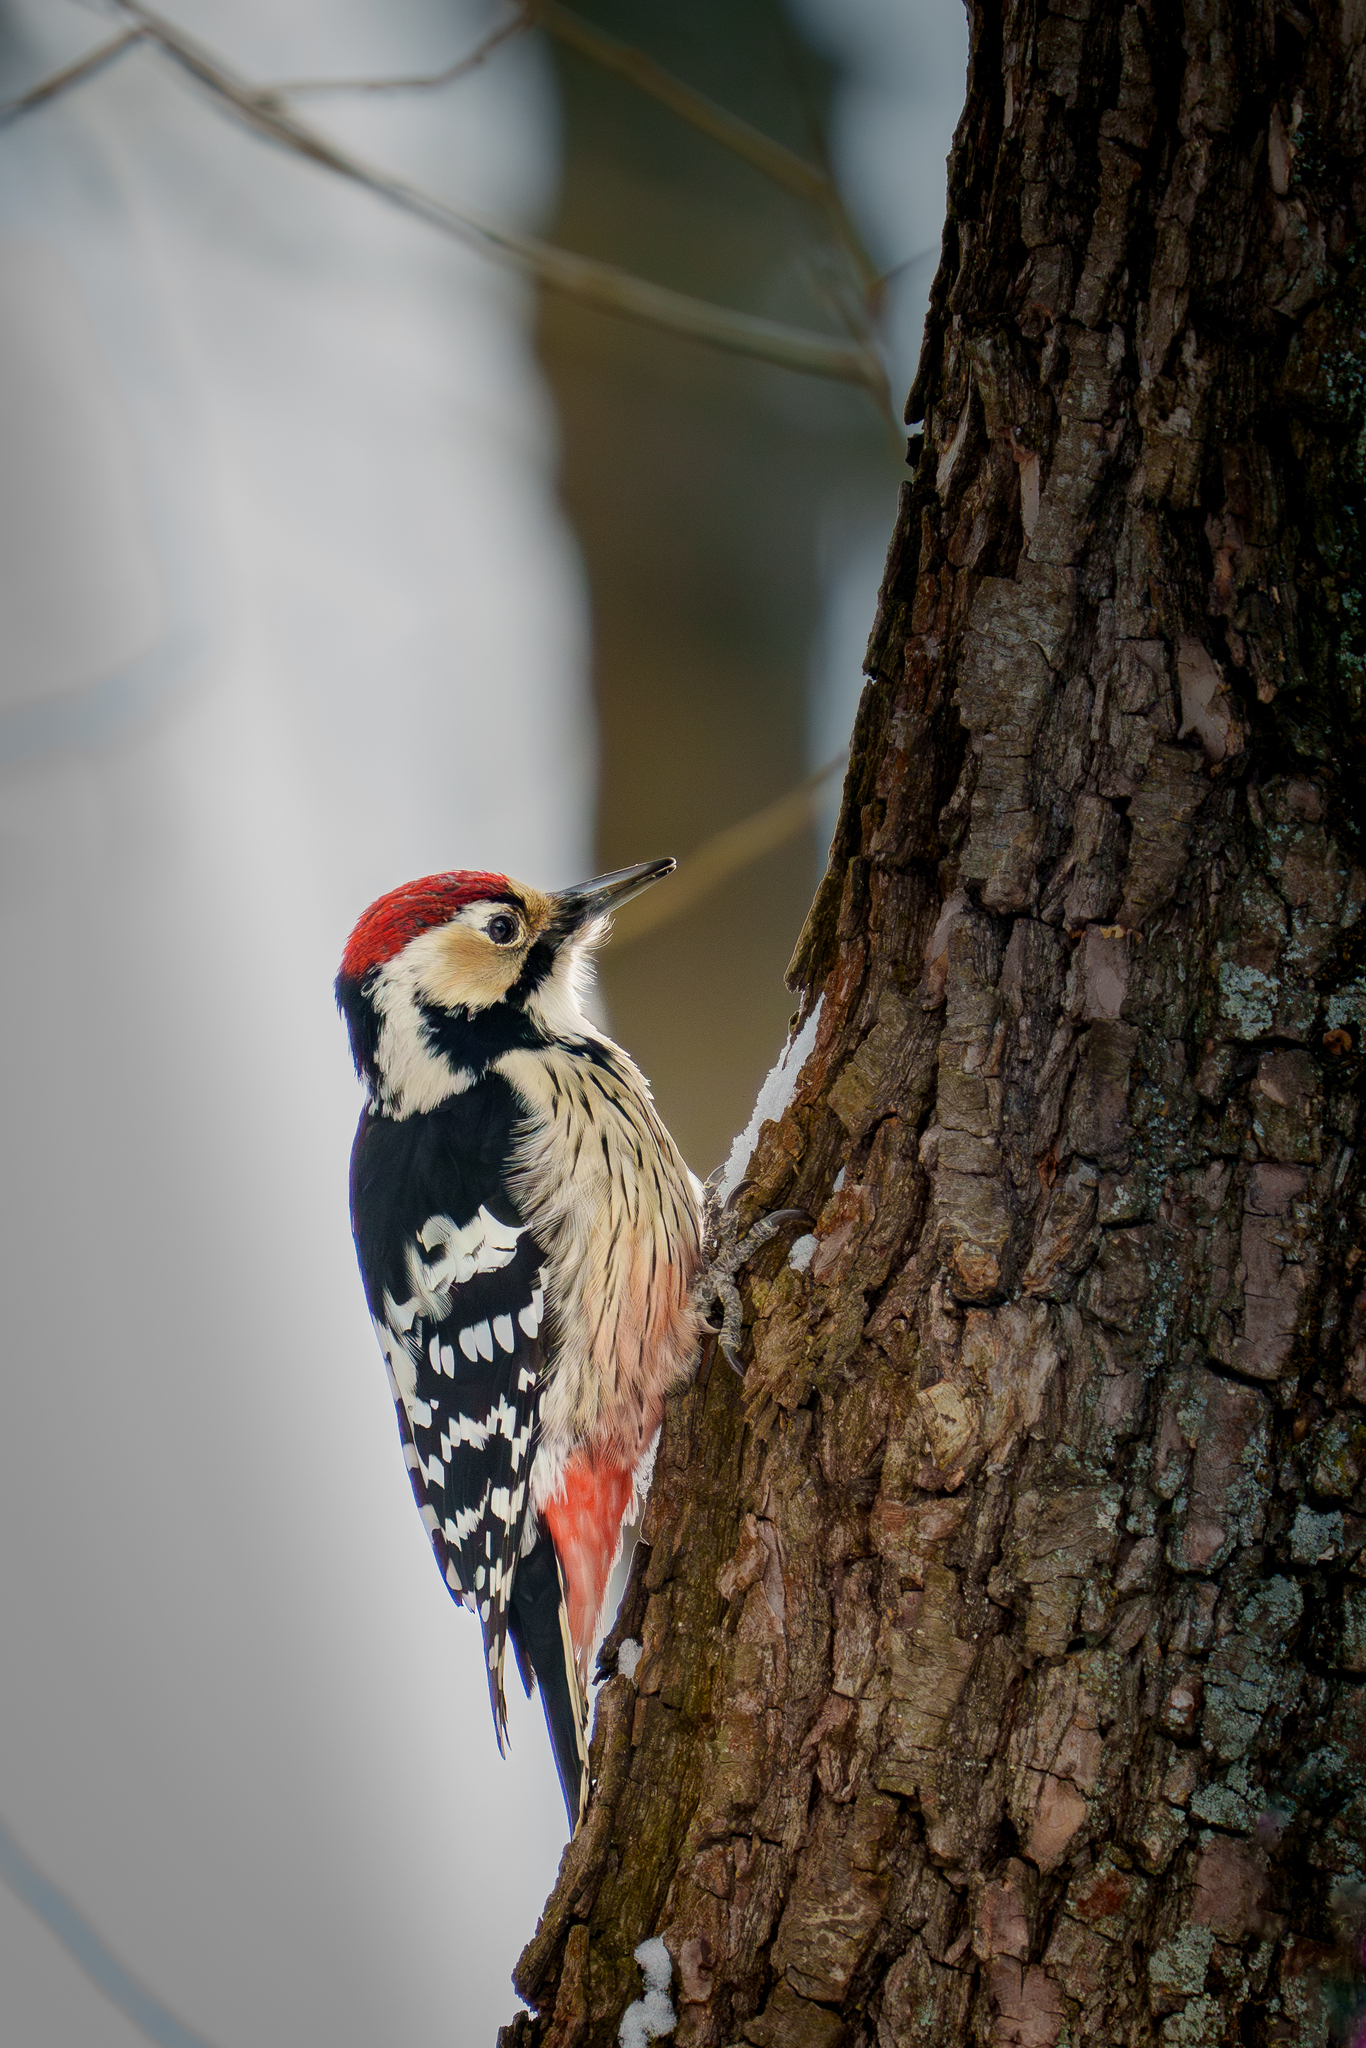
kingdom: Animalia
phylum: Chordata
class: Aves
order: Piciformes
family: Picidae
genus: Dendrocopos
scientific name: Dendrocopos leucotos
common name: White-backed woodpecker
